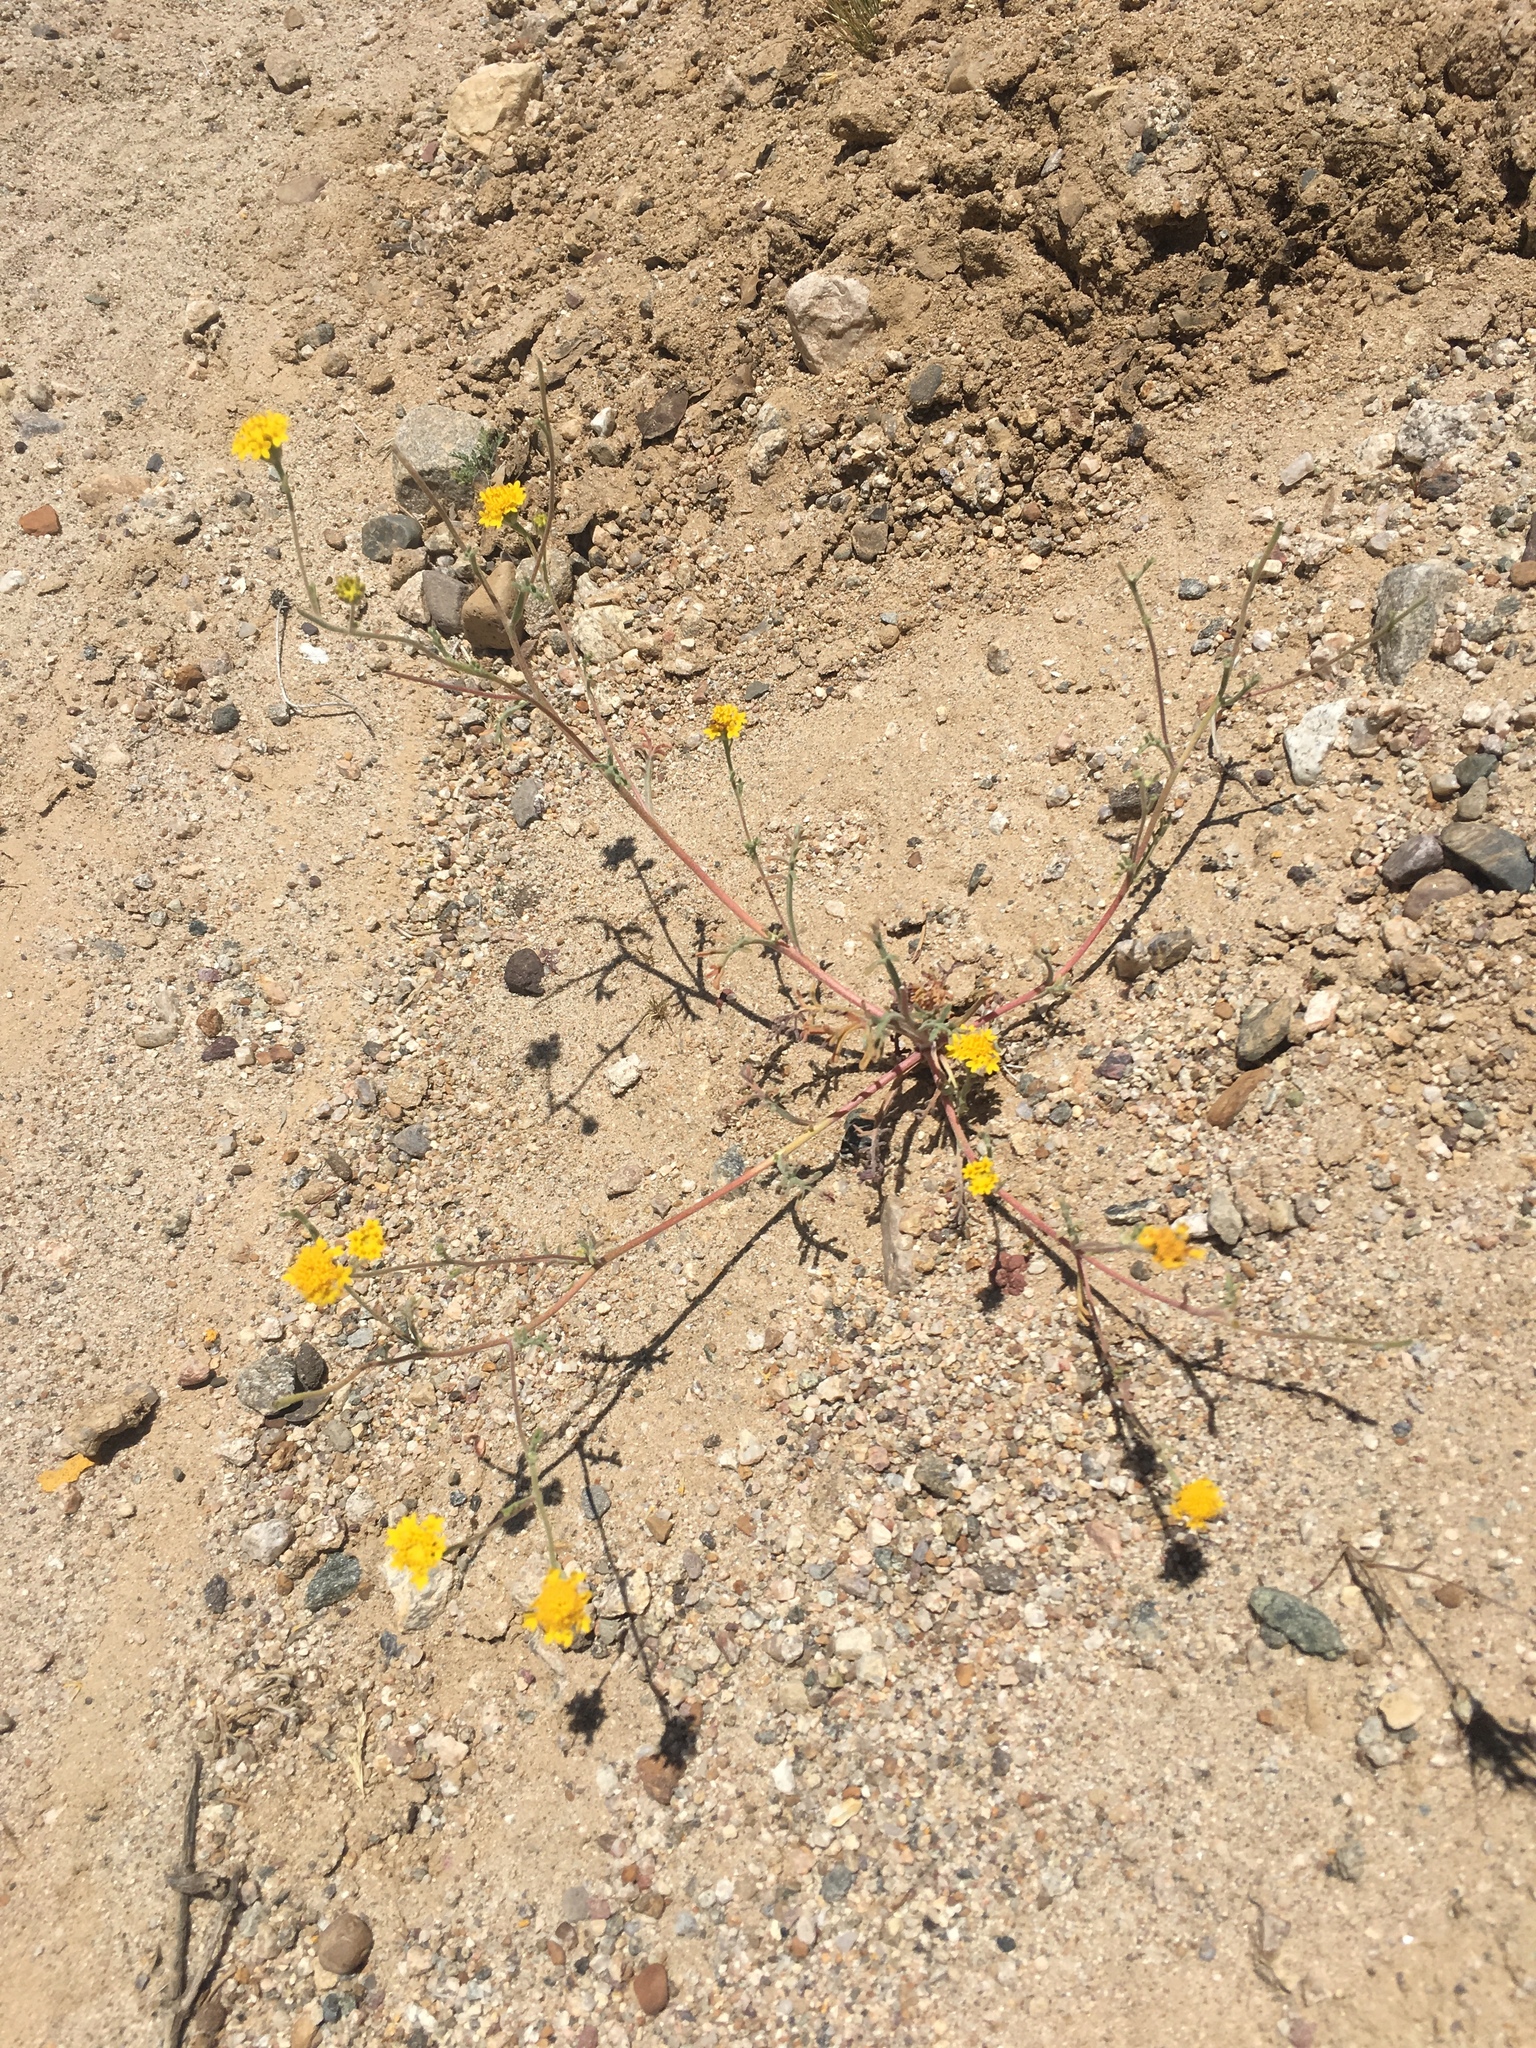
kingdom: Plantae
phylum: Tracheophyta
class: Magnoliopsida
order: Asterales
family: Asteraceae
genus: Chaenactis
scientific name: Chaenactis glabriuscula
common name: Yellow pincushion
